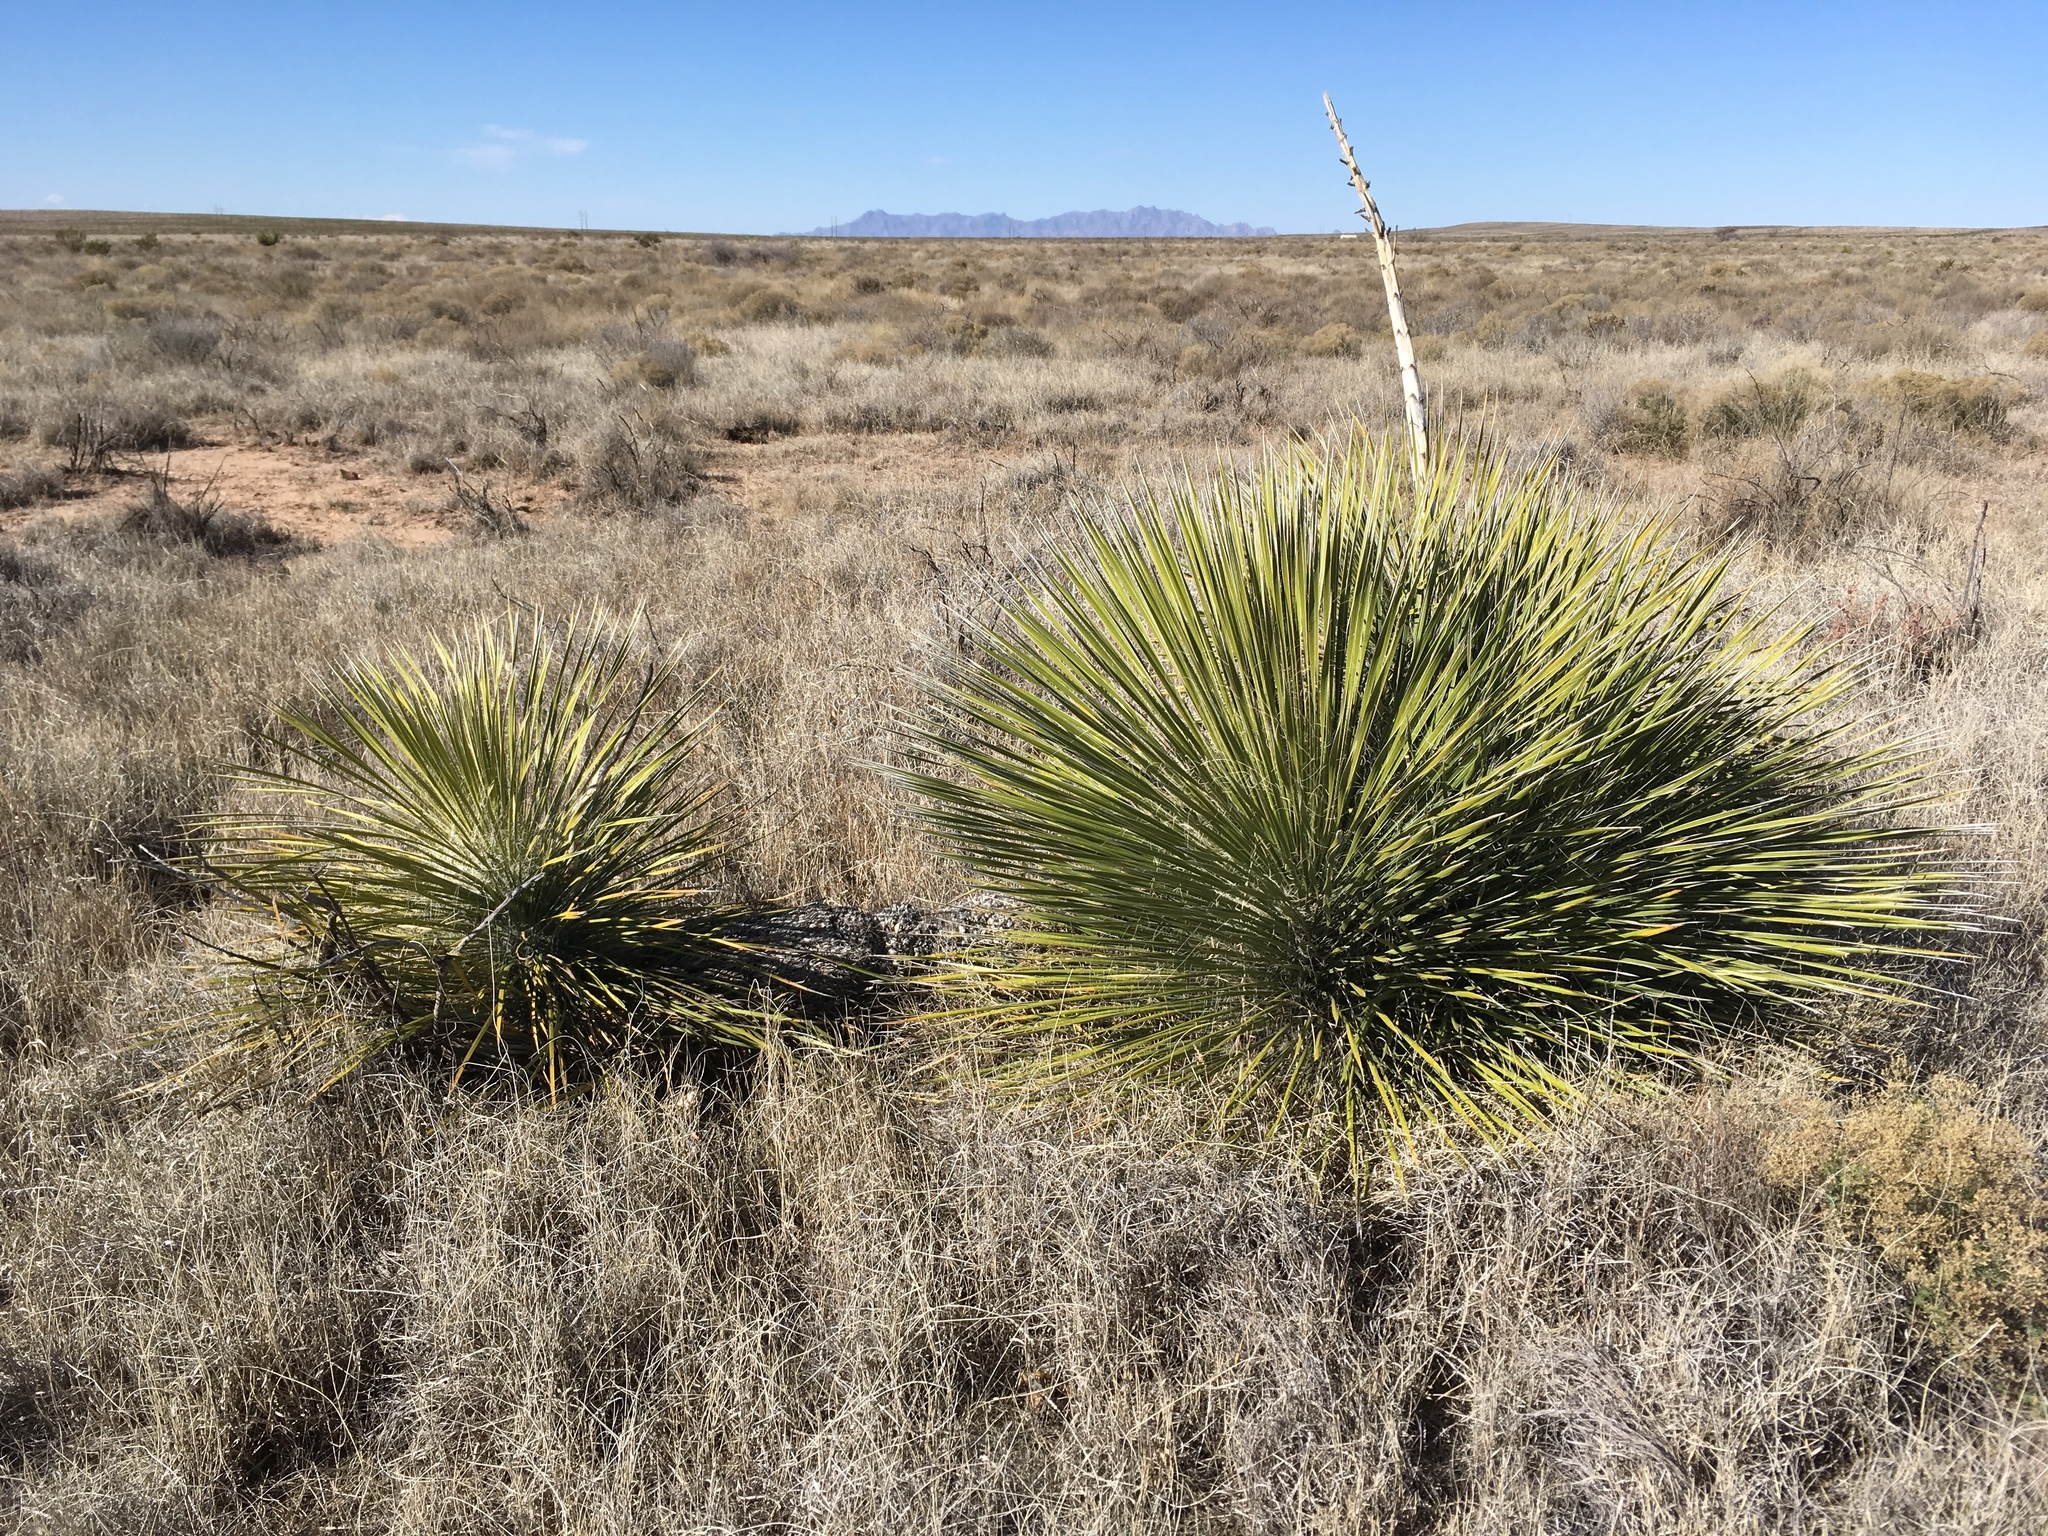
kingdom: Plantae
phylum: Tracheophyta
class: Liliopsida
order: Asparagales
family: Asparagaceae
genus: Yucca
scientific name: Yucca elata
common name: Palmella
